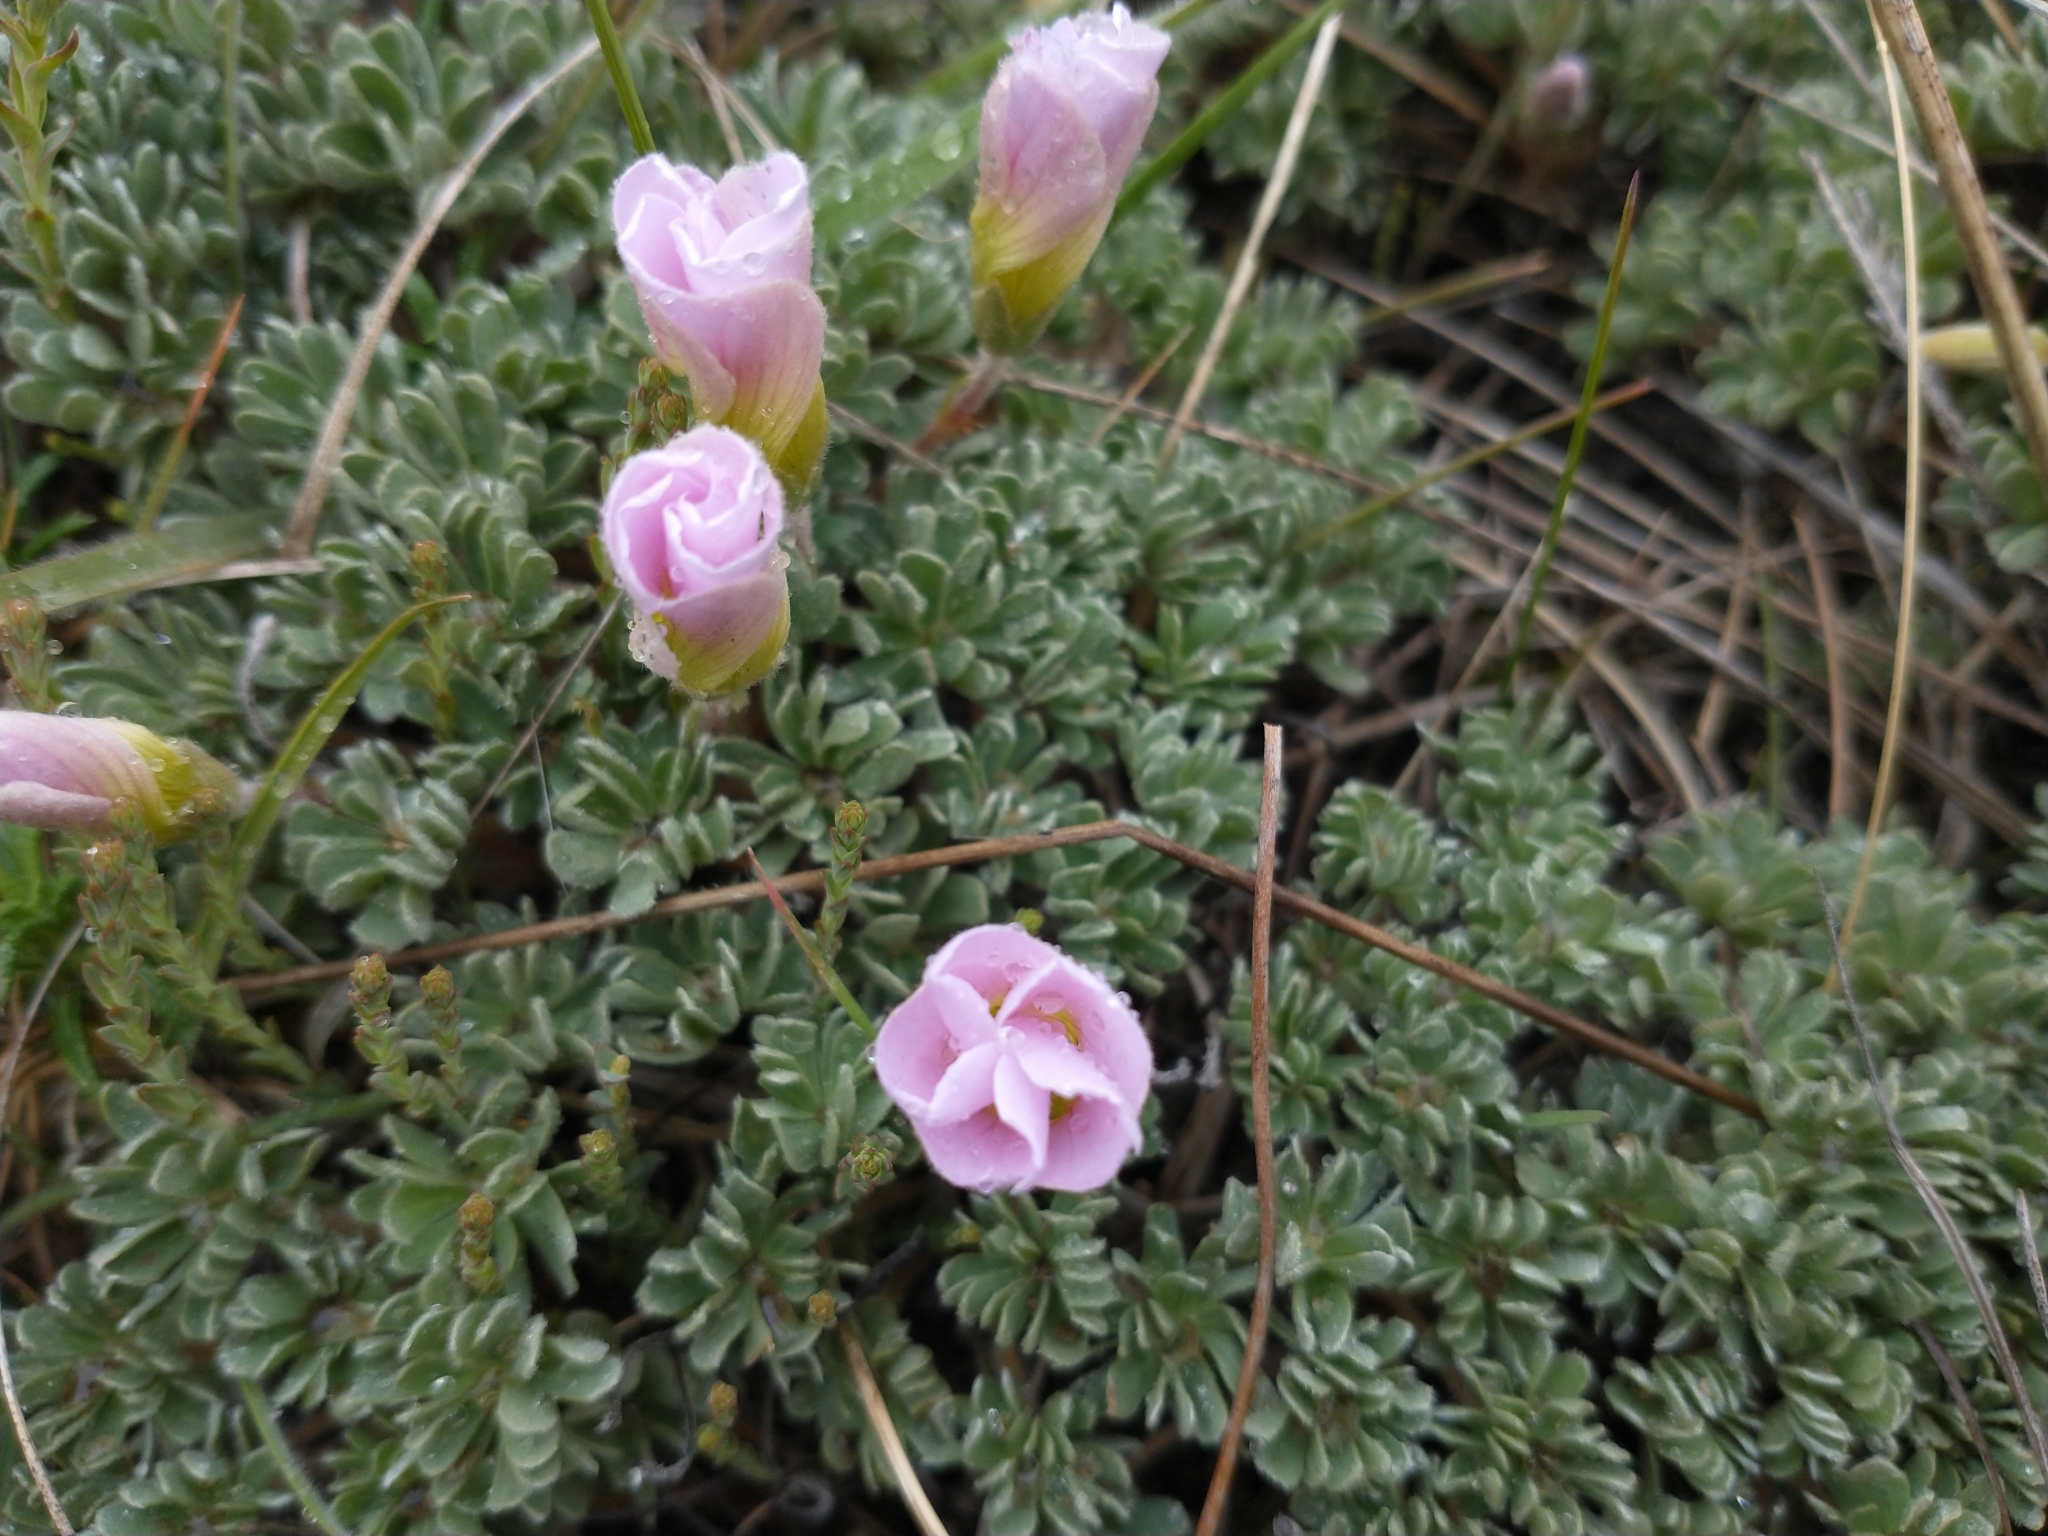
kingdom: Plantae
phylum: Tracheophyta
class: Magnoliopsida
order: Oxalidales
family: Oxalidaceae
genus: Oxalis
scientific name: Oxalis enneaphylla
